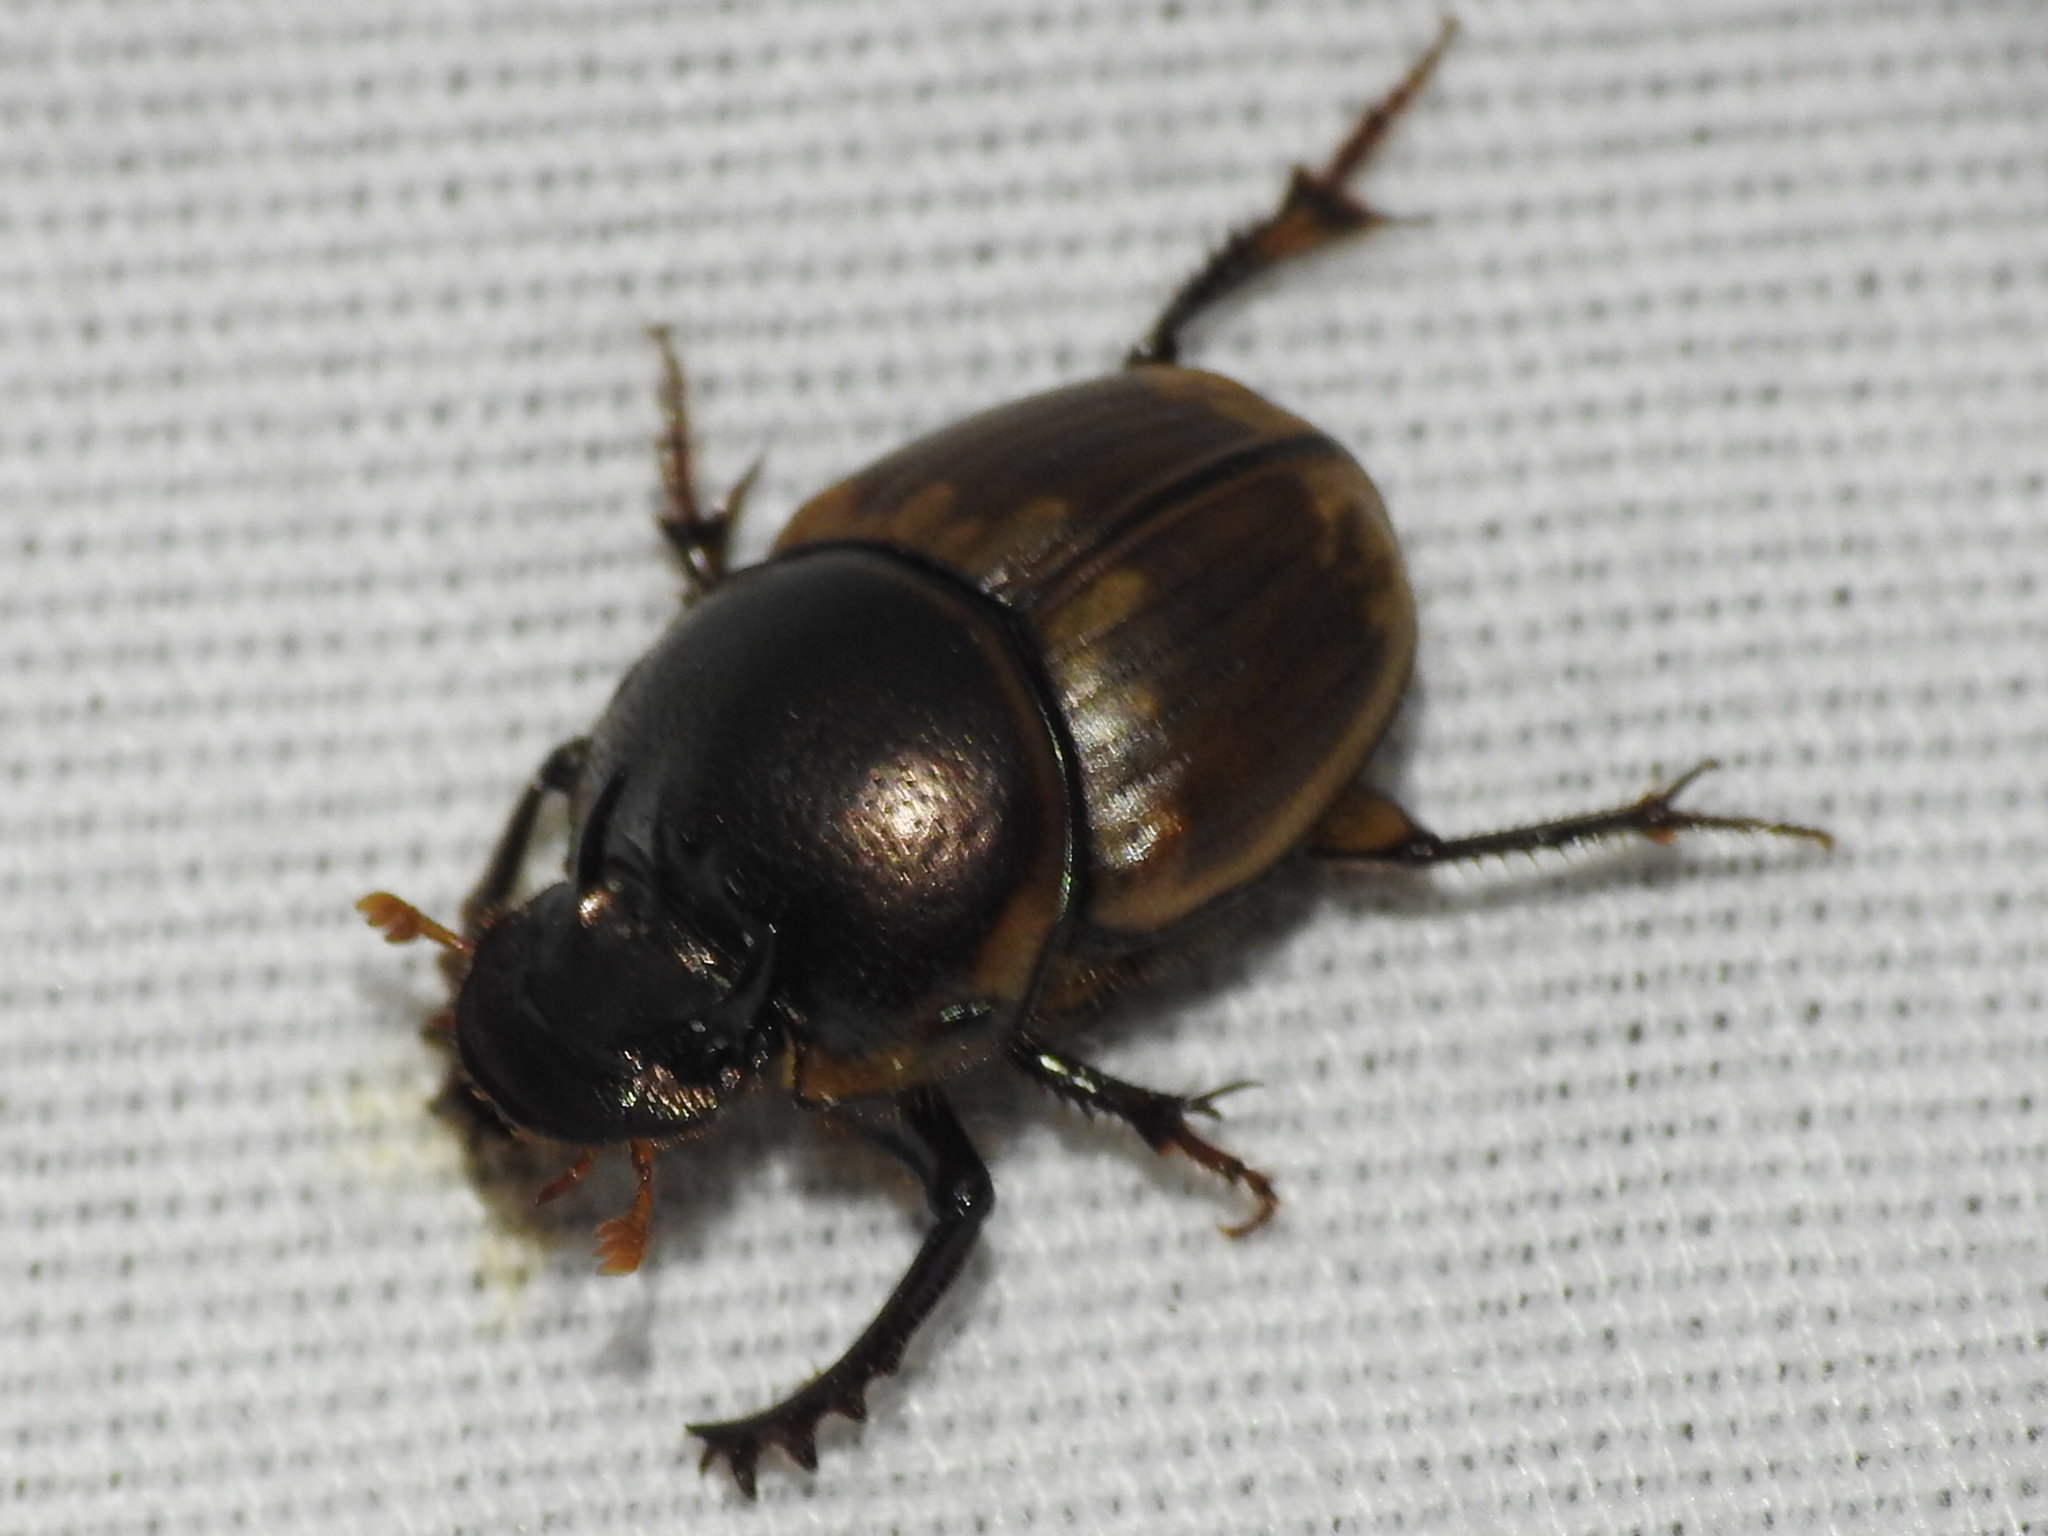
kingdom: Animalia
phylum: Arthropoda
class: Insecta
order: Coleoptera
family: Scarabaeidae
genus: Digitonthophagus
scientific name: Digitonthophagus gazella
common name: Brown dung beetle
